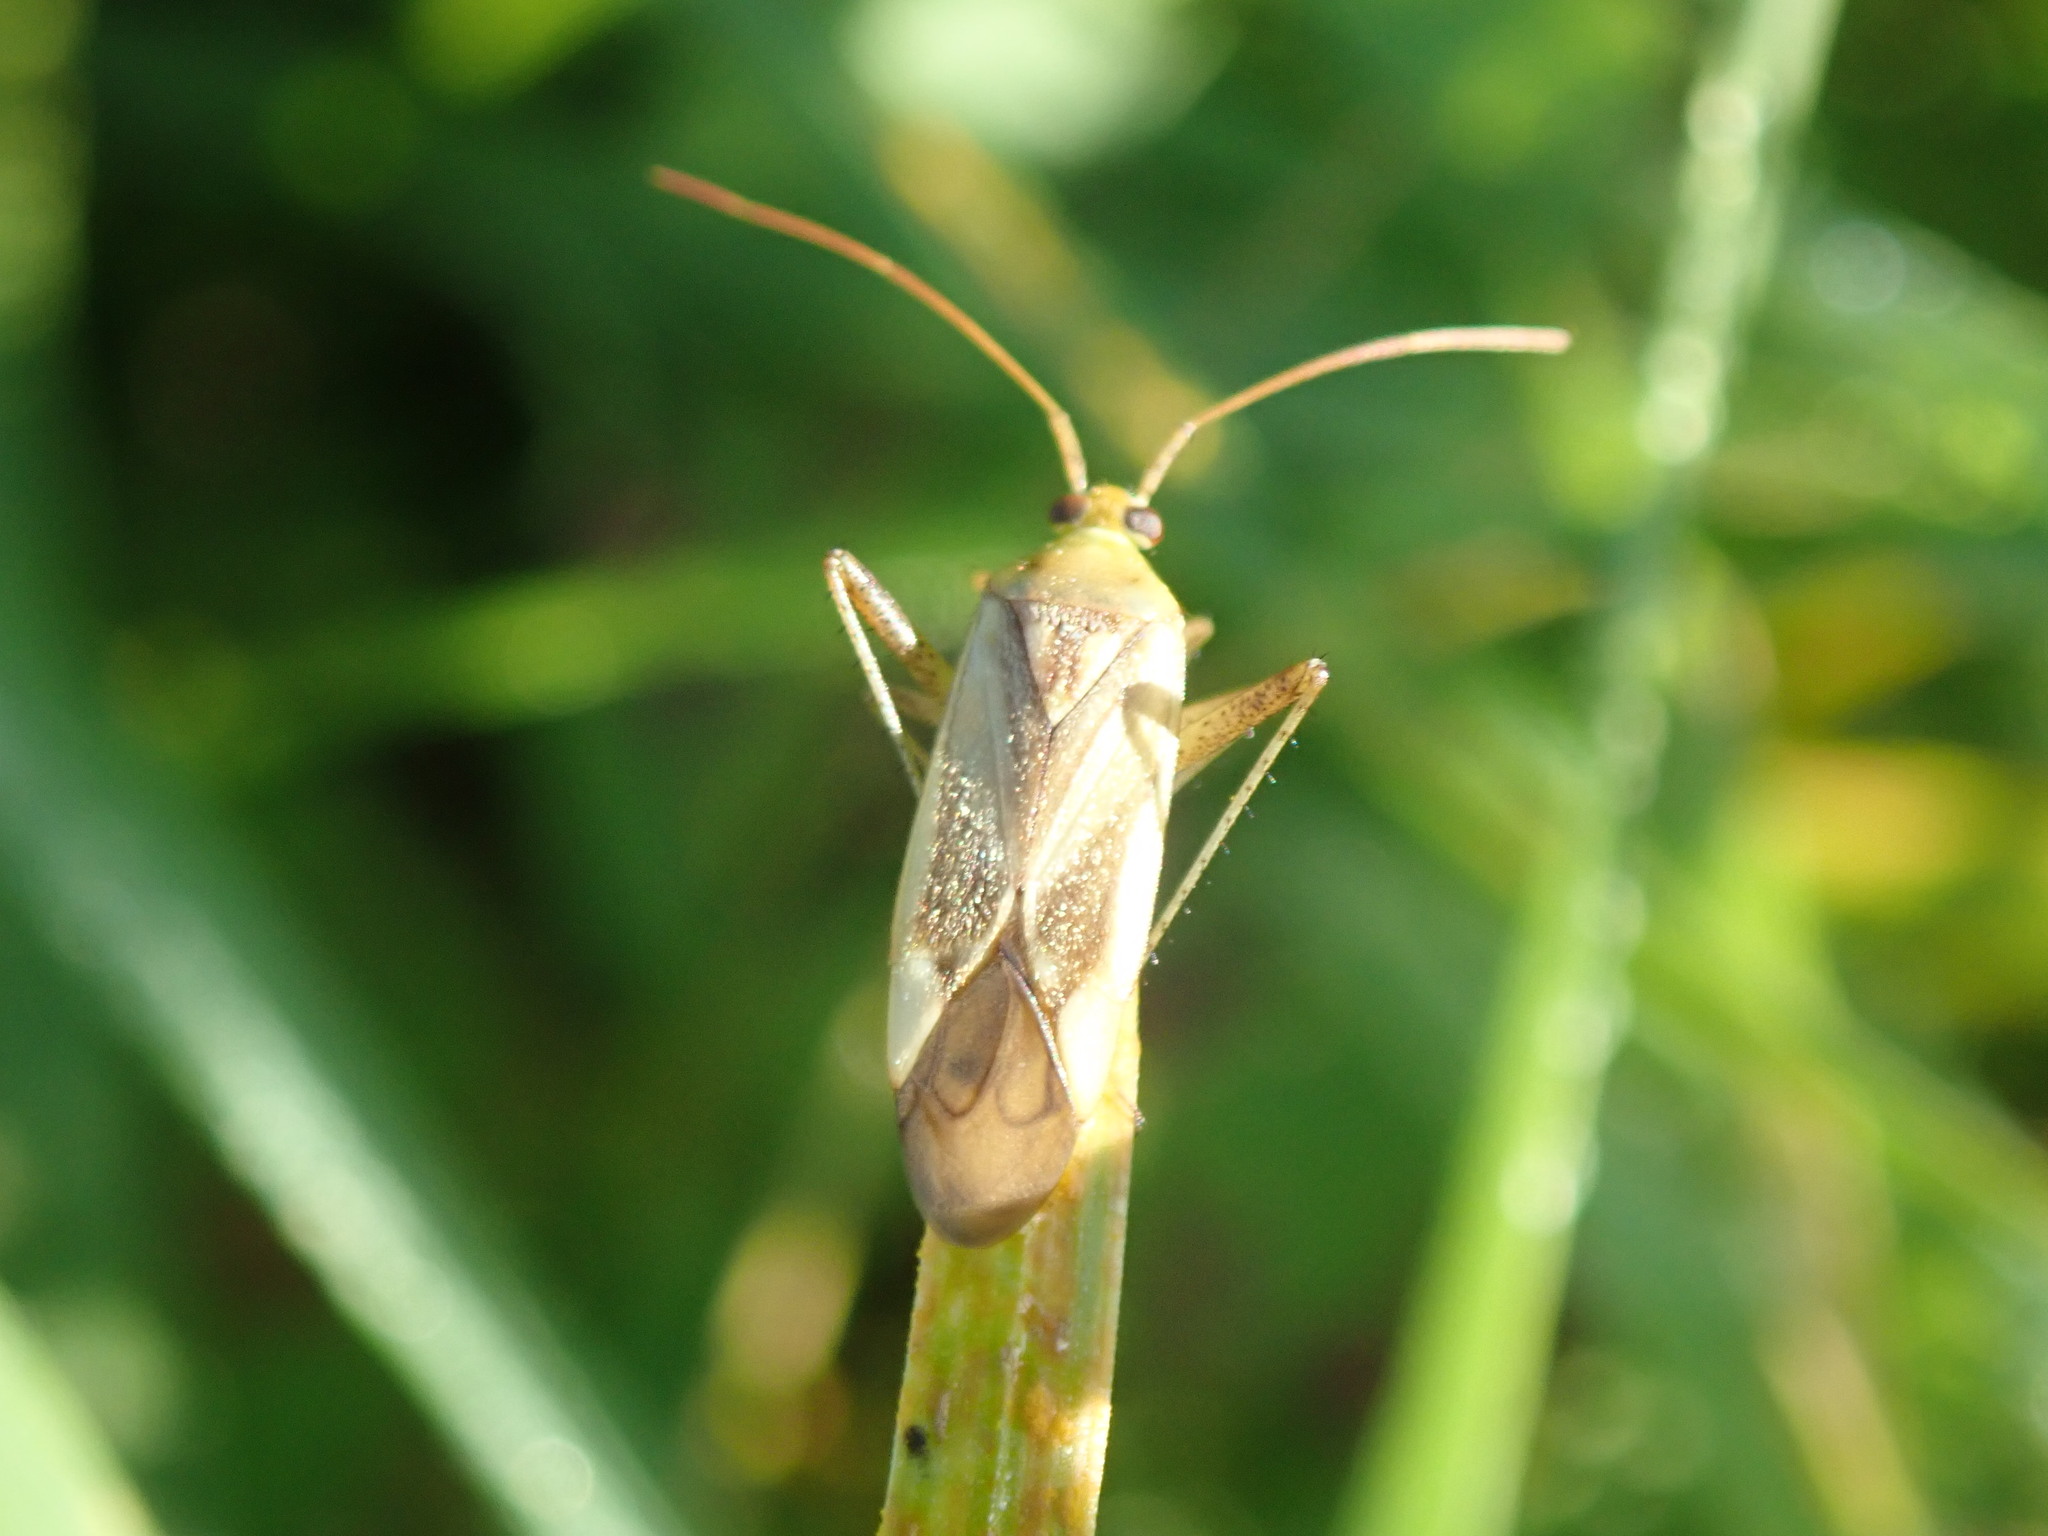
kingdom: Animalia
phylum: Arthropoda
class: Insecta
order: Hemiptera
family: Miridae
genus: Adelphocoris
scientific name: Adelphocoris lineolatus
